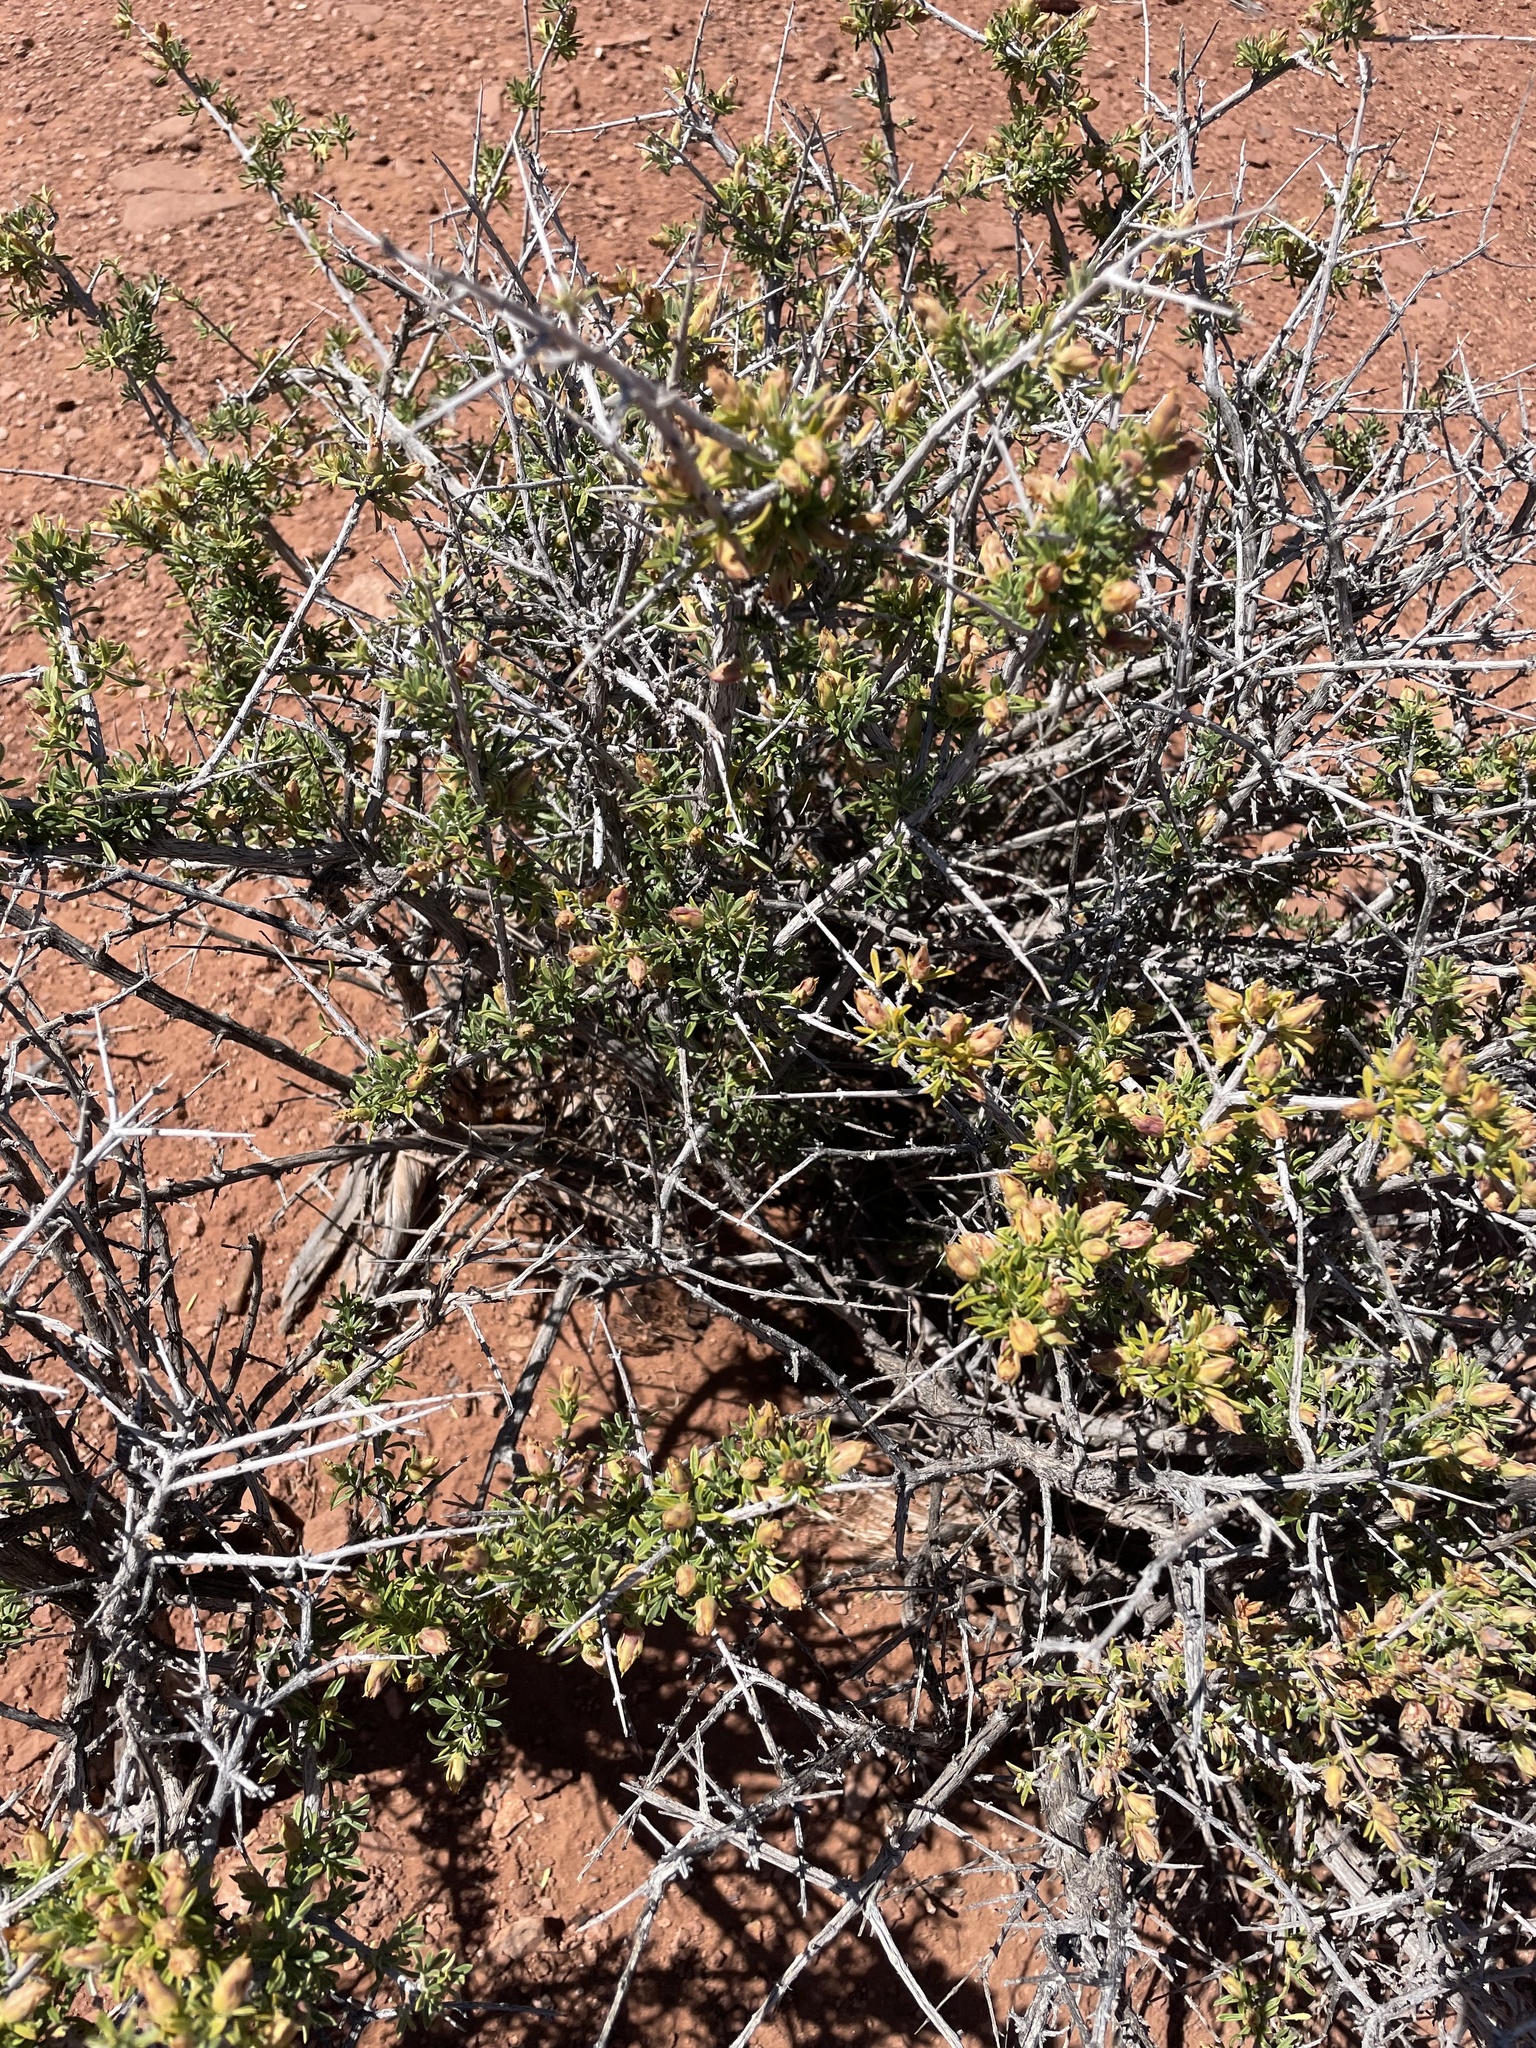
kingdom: Plantae
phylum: Tracheophyta
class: Magnoliopsida
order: Rosales
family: Rosaceae
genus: Coleogyne
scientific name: Coleogyne ramosissima
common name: Blackbrush
